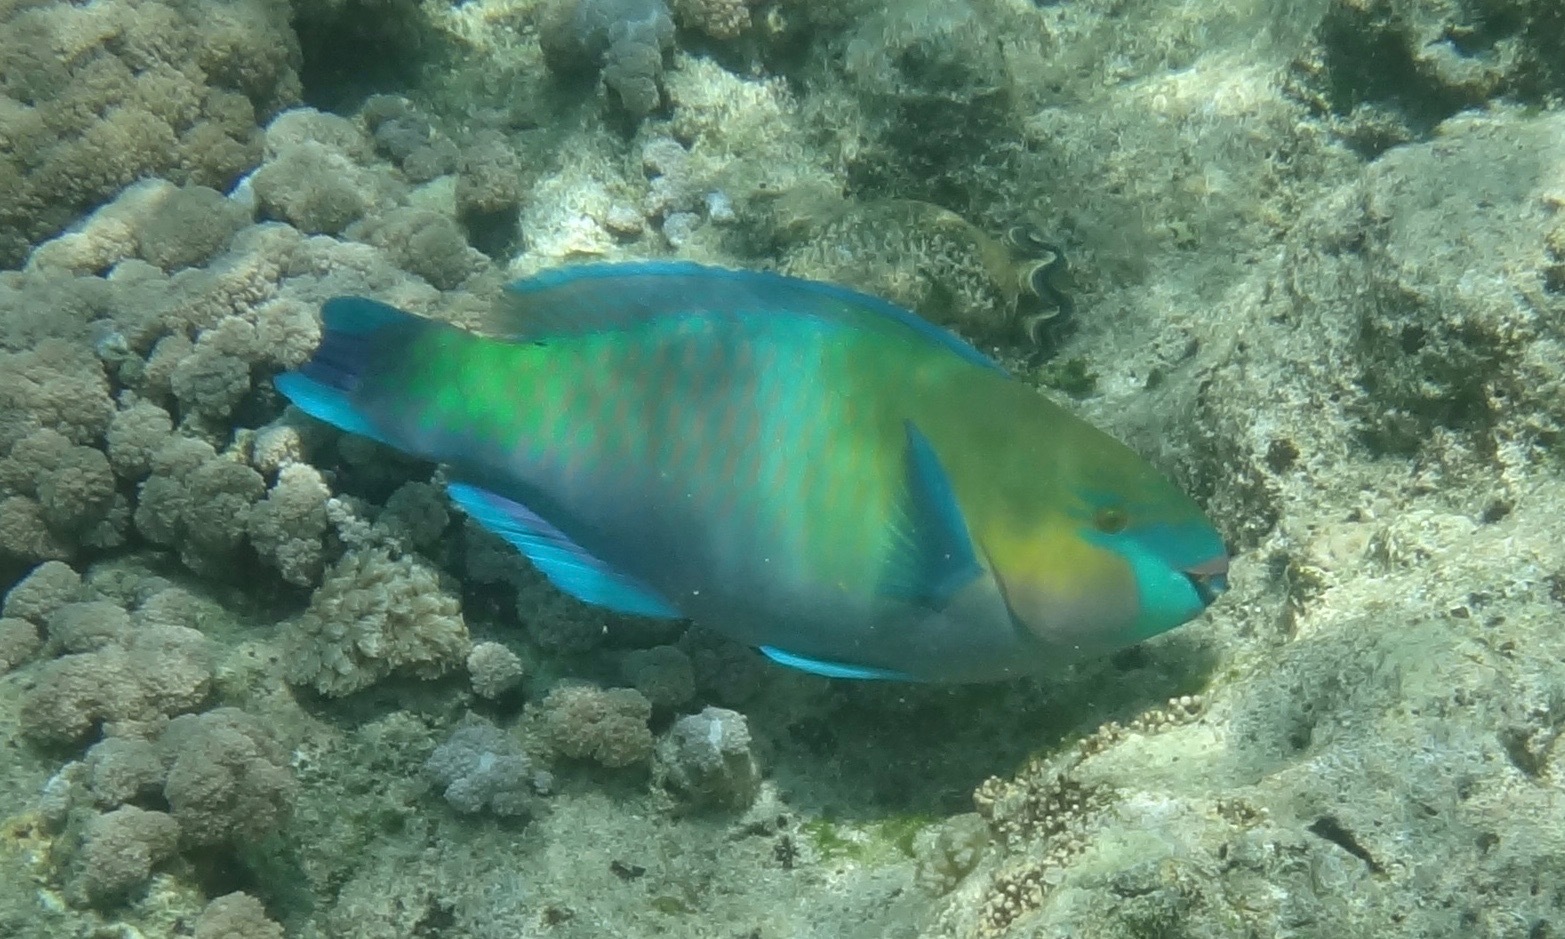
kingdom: Animalia
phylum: Chordata
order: Perciformes
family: Scaridae
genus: Scarus
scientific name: Scarus ferrugineus
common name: Rusty parrotfish
